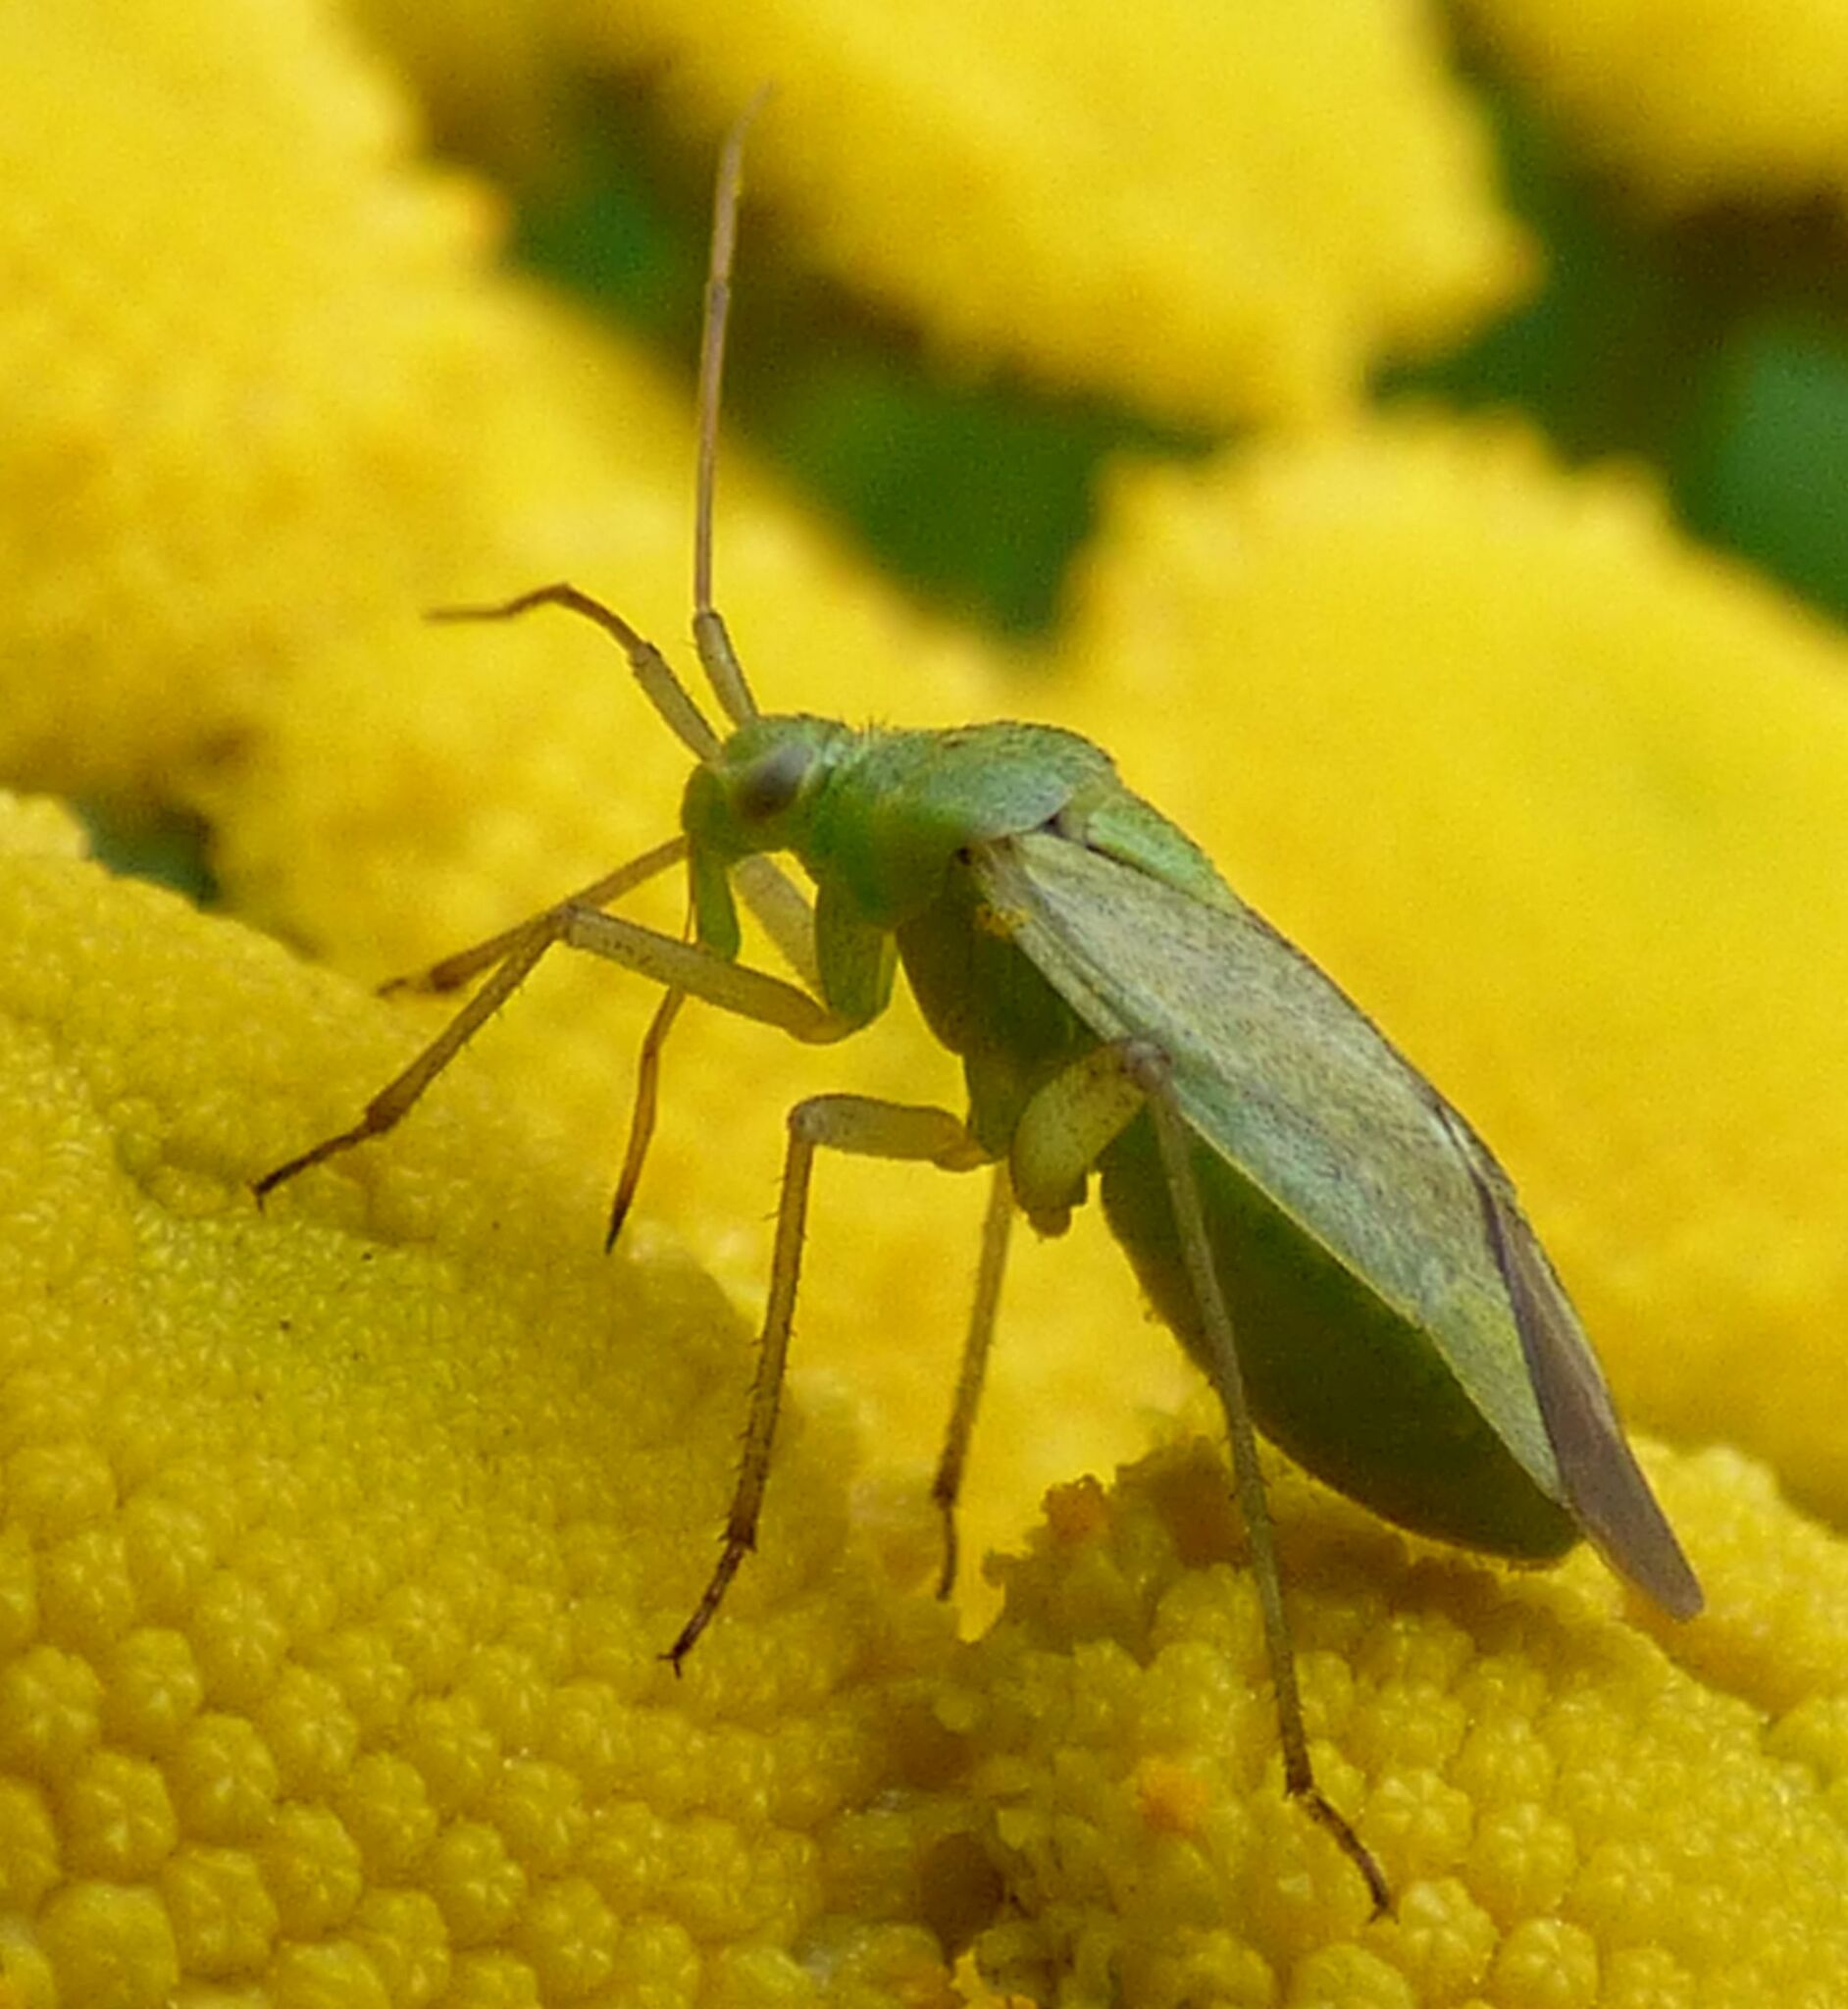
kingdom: Animalia
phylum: Arthropoda
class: Insecta
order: Hemiptera
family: Miridae
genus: Closterotomus
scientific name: Closterotomus norvegicus
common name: Plant bug
